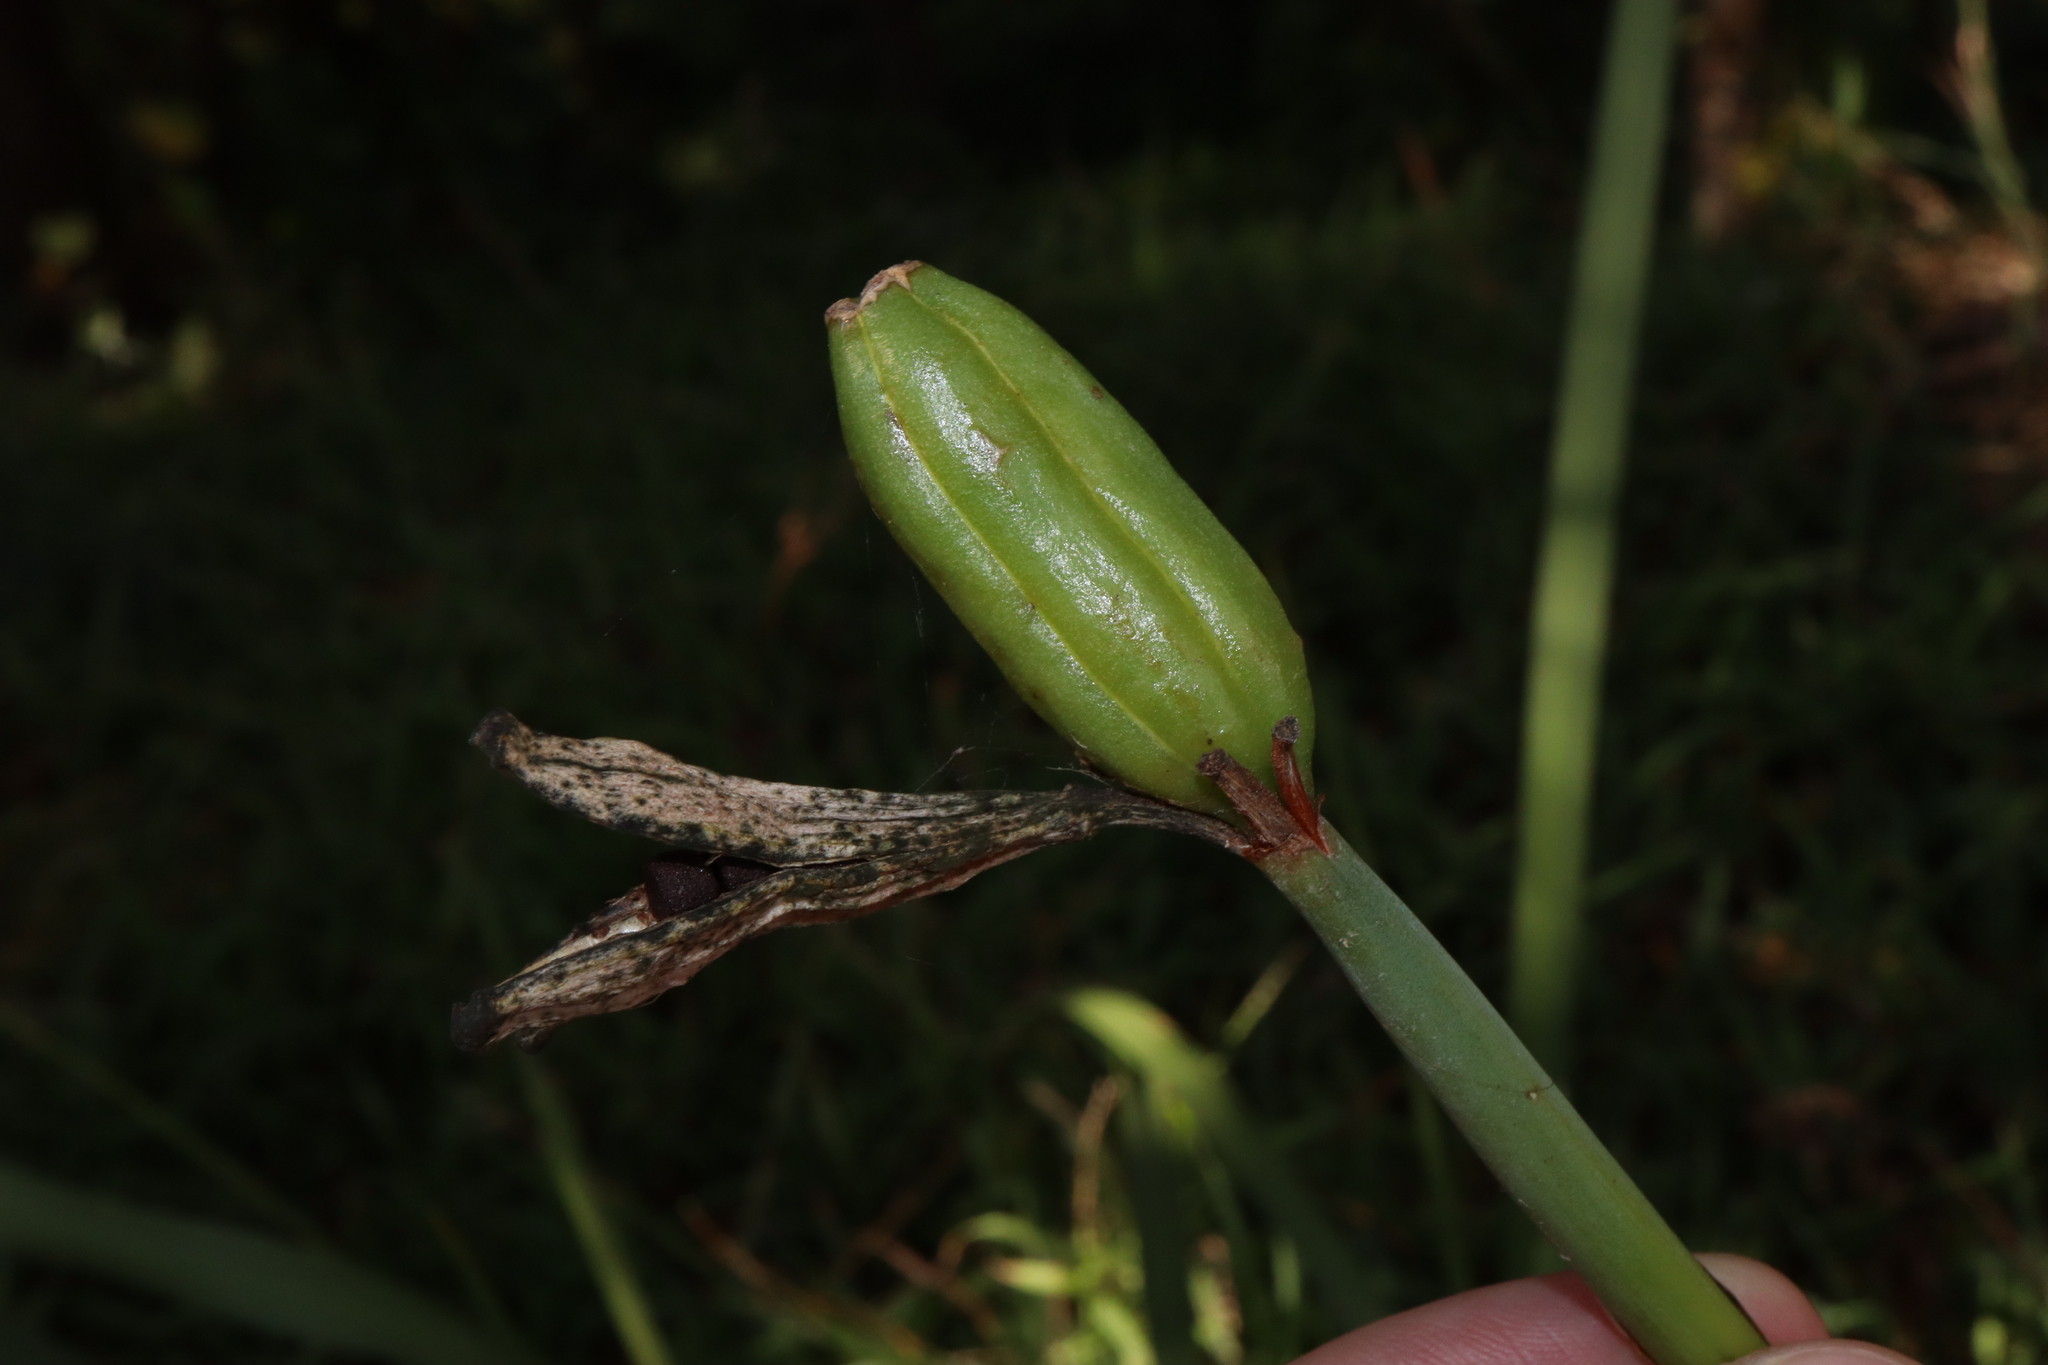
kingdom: Plantae
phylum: Tracheophyta
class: Liliopsida
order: Asparagales
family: Iridaceae
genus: Dietes
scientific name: Dietes grandiflora
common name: Wild iris
